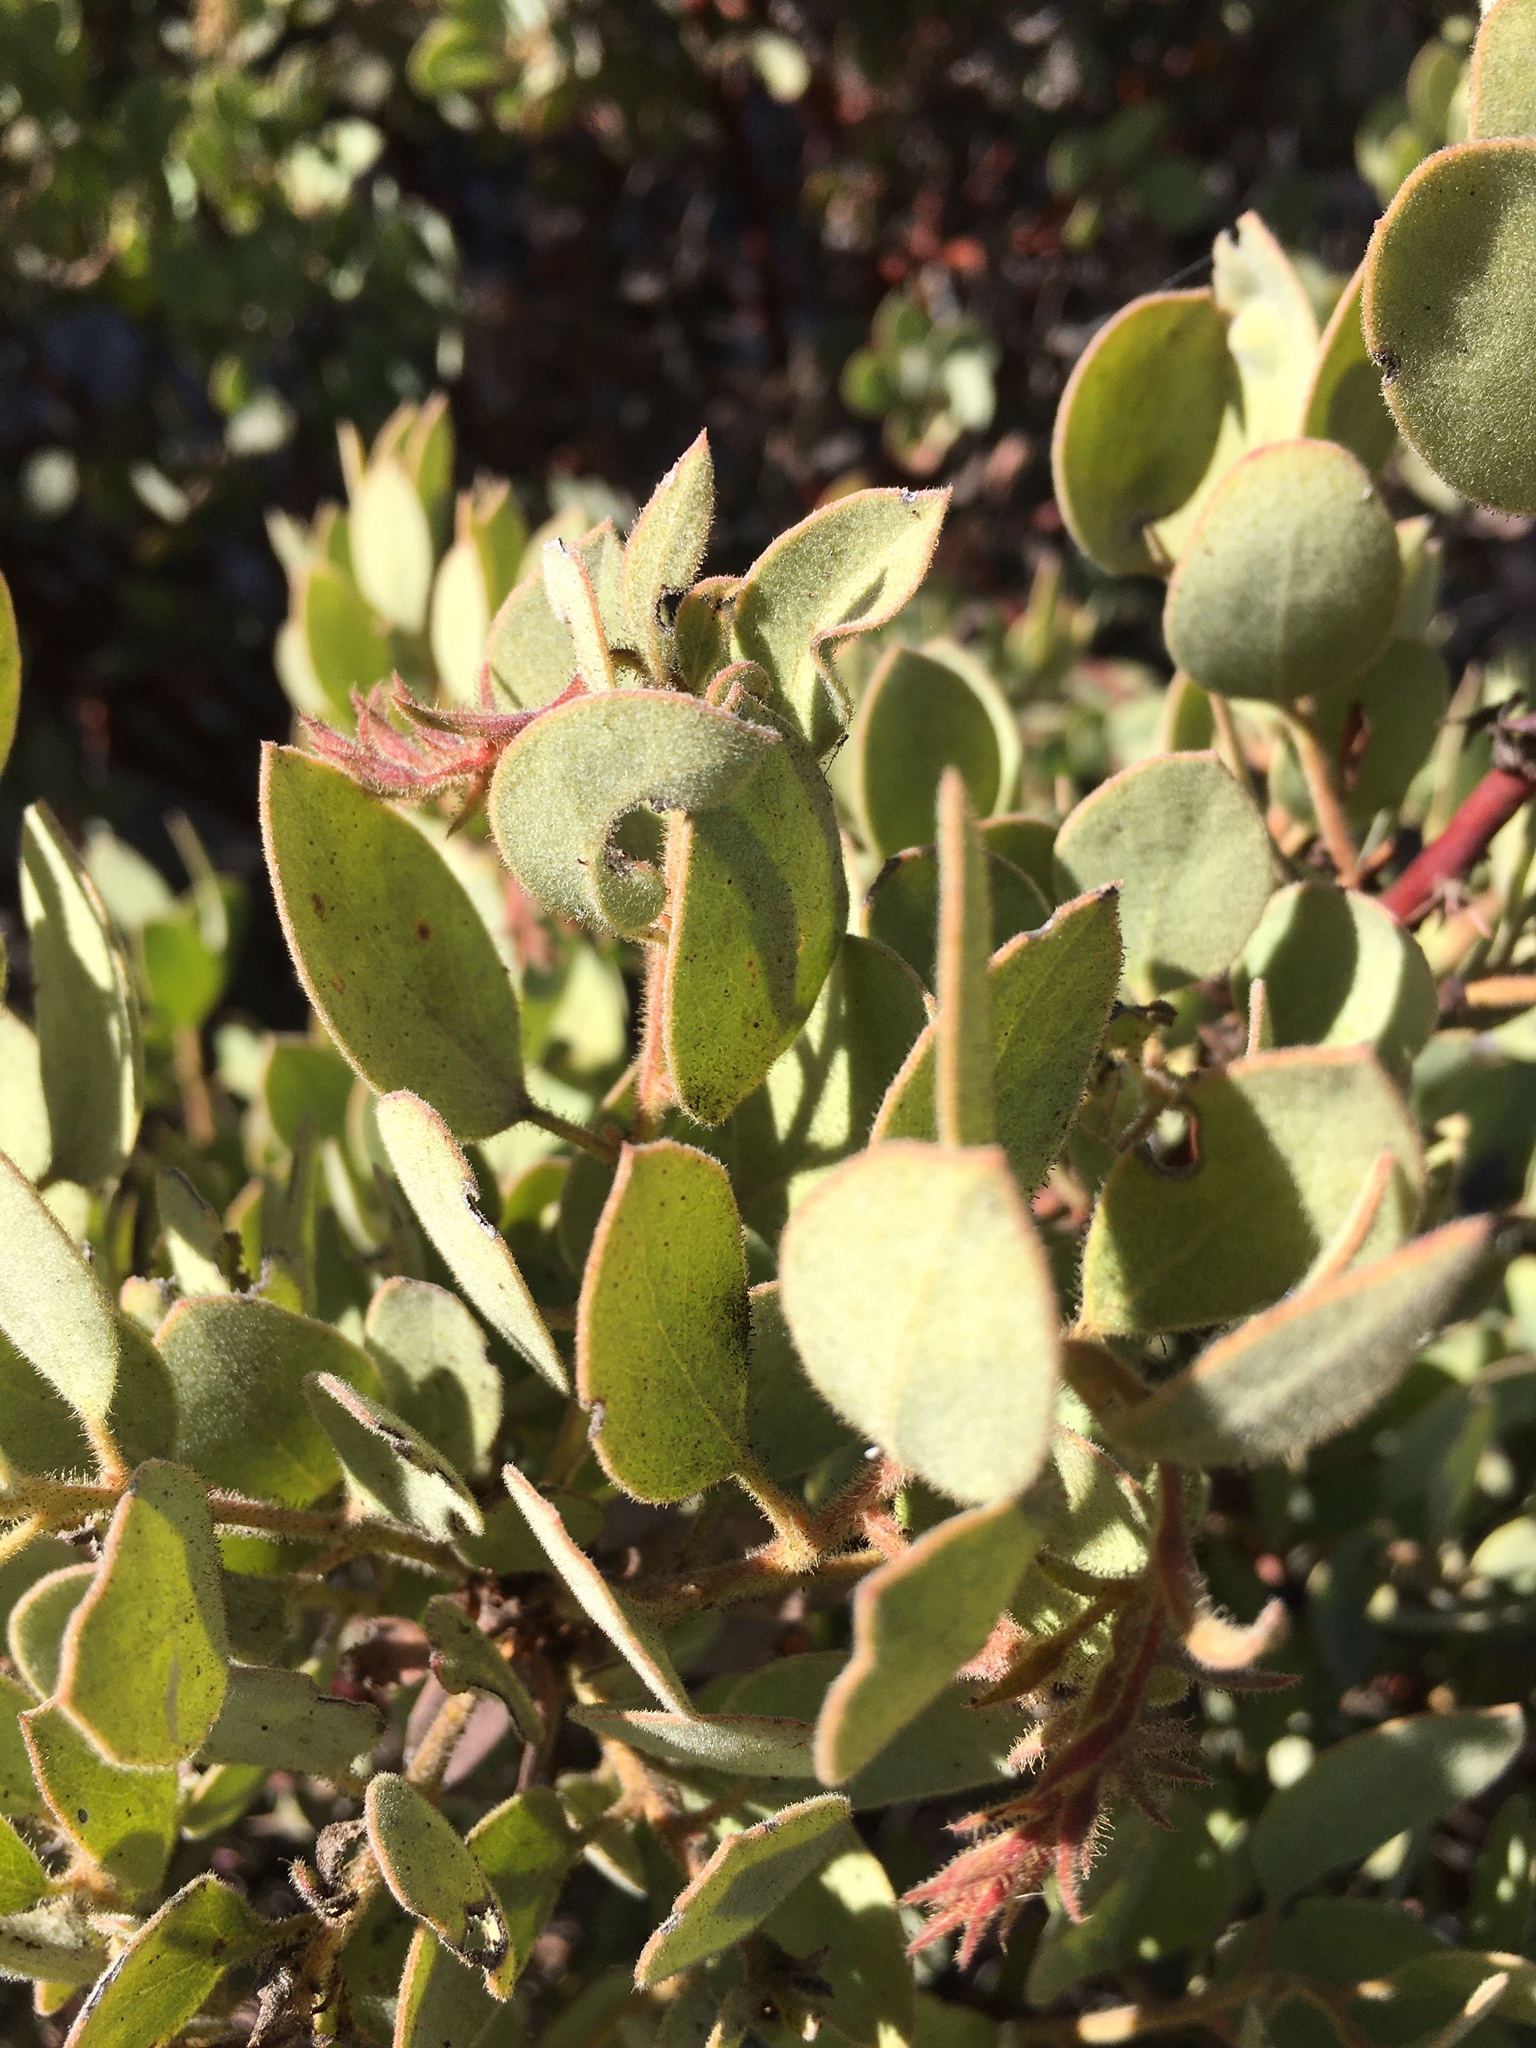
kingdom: Plantae
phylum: Tracheophyta
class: Magnoliopsida
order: Ericales
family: Ericaceae
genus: Arctostaphylos
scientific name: Arctostaphylos otayensis
